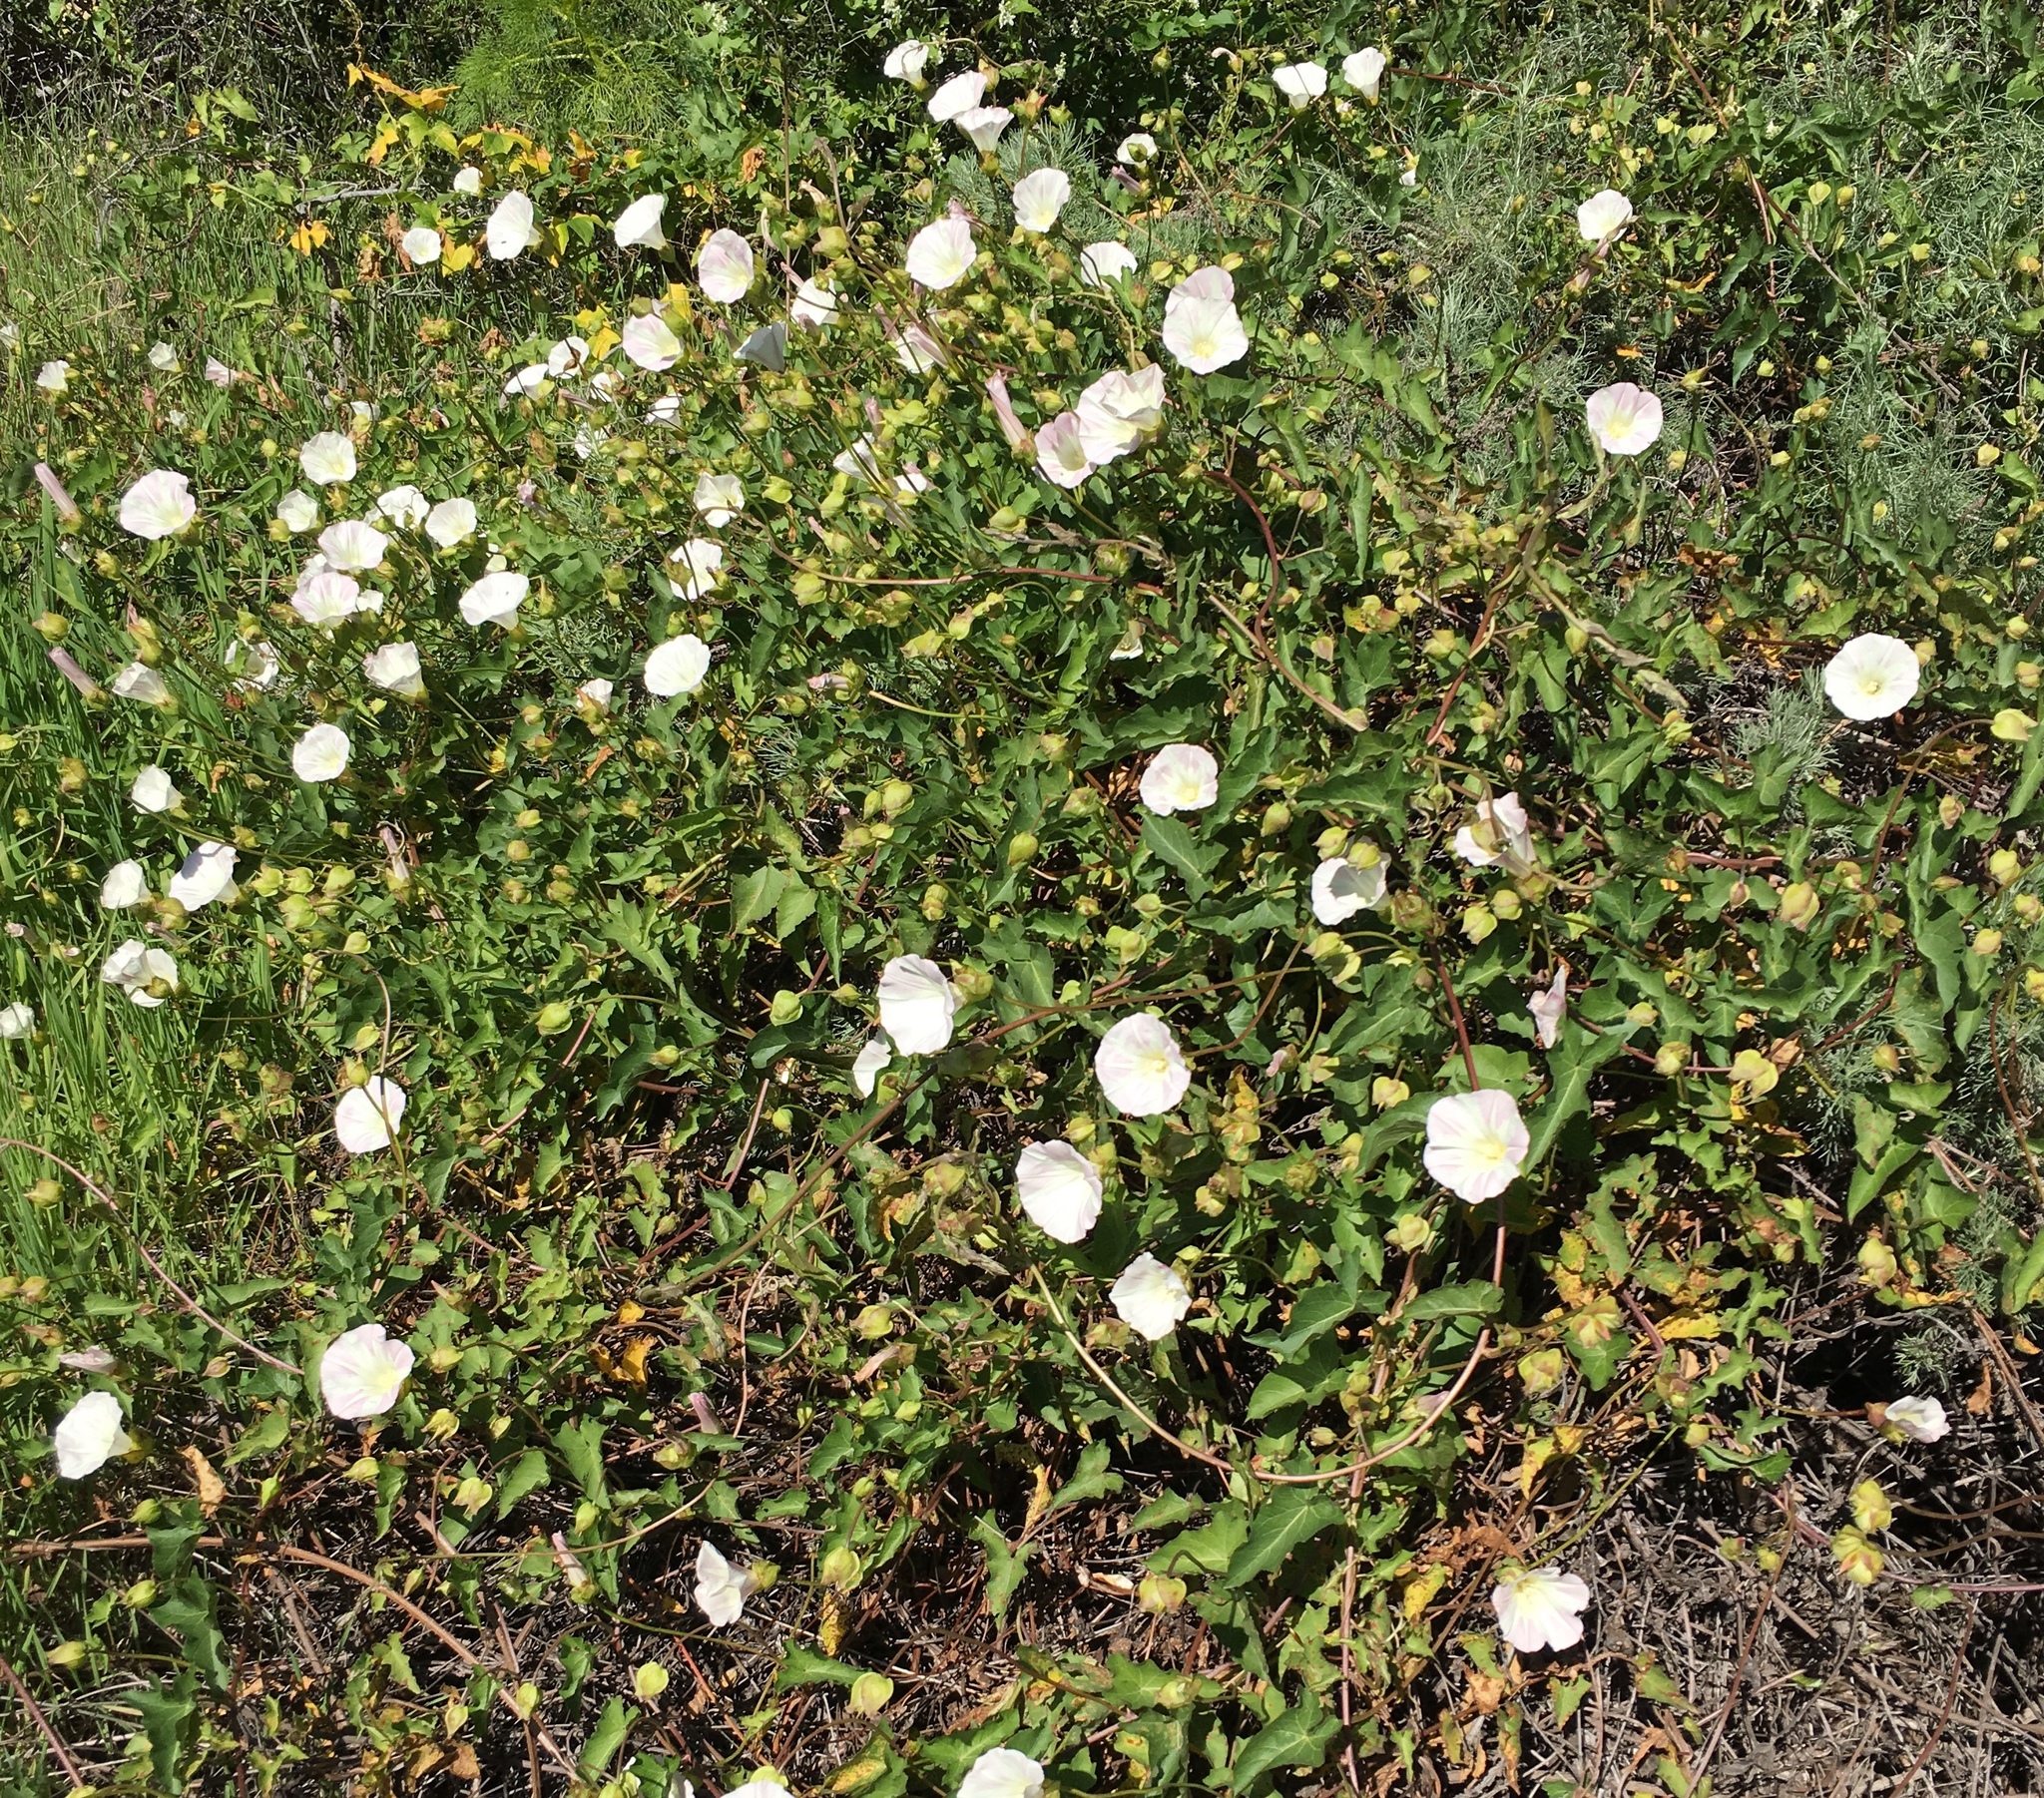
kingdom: Plantae
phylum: Tracheophyta
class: Magnoliopsida
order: Solanales
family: Convolvulaceae
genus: Calystegia
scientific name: Calystegia macrostegia
